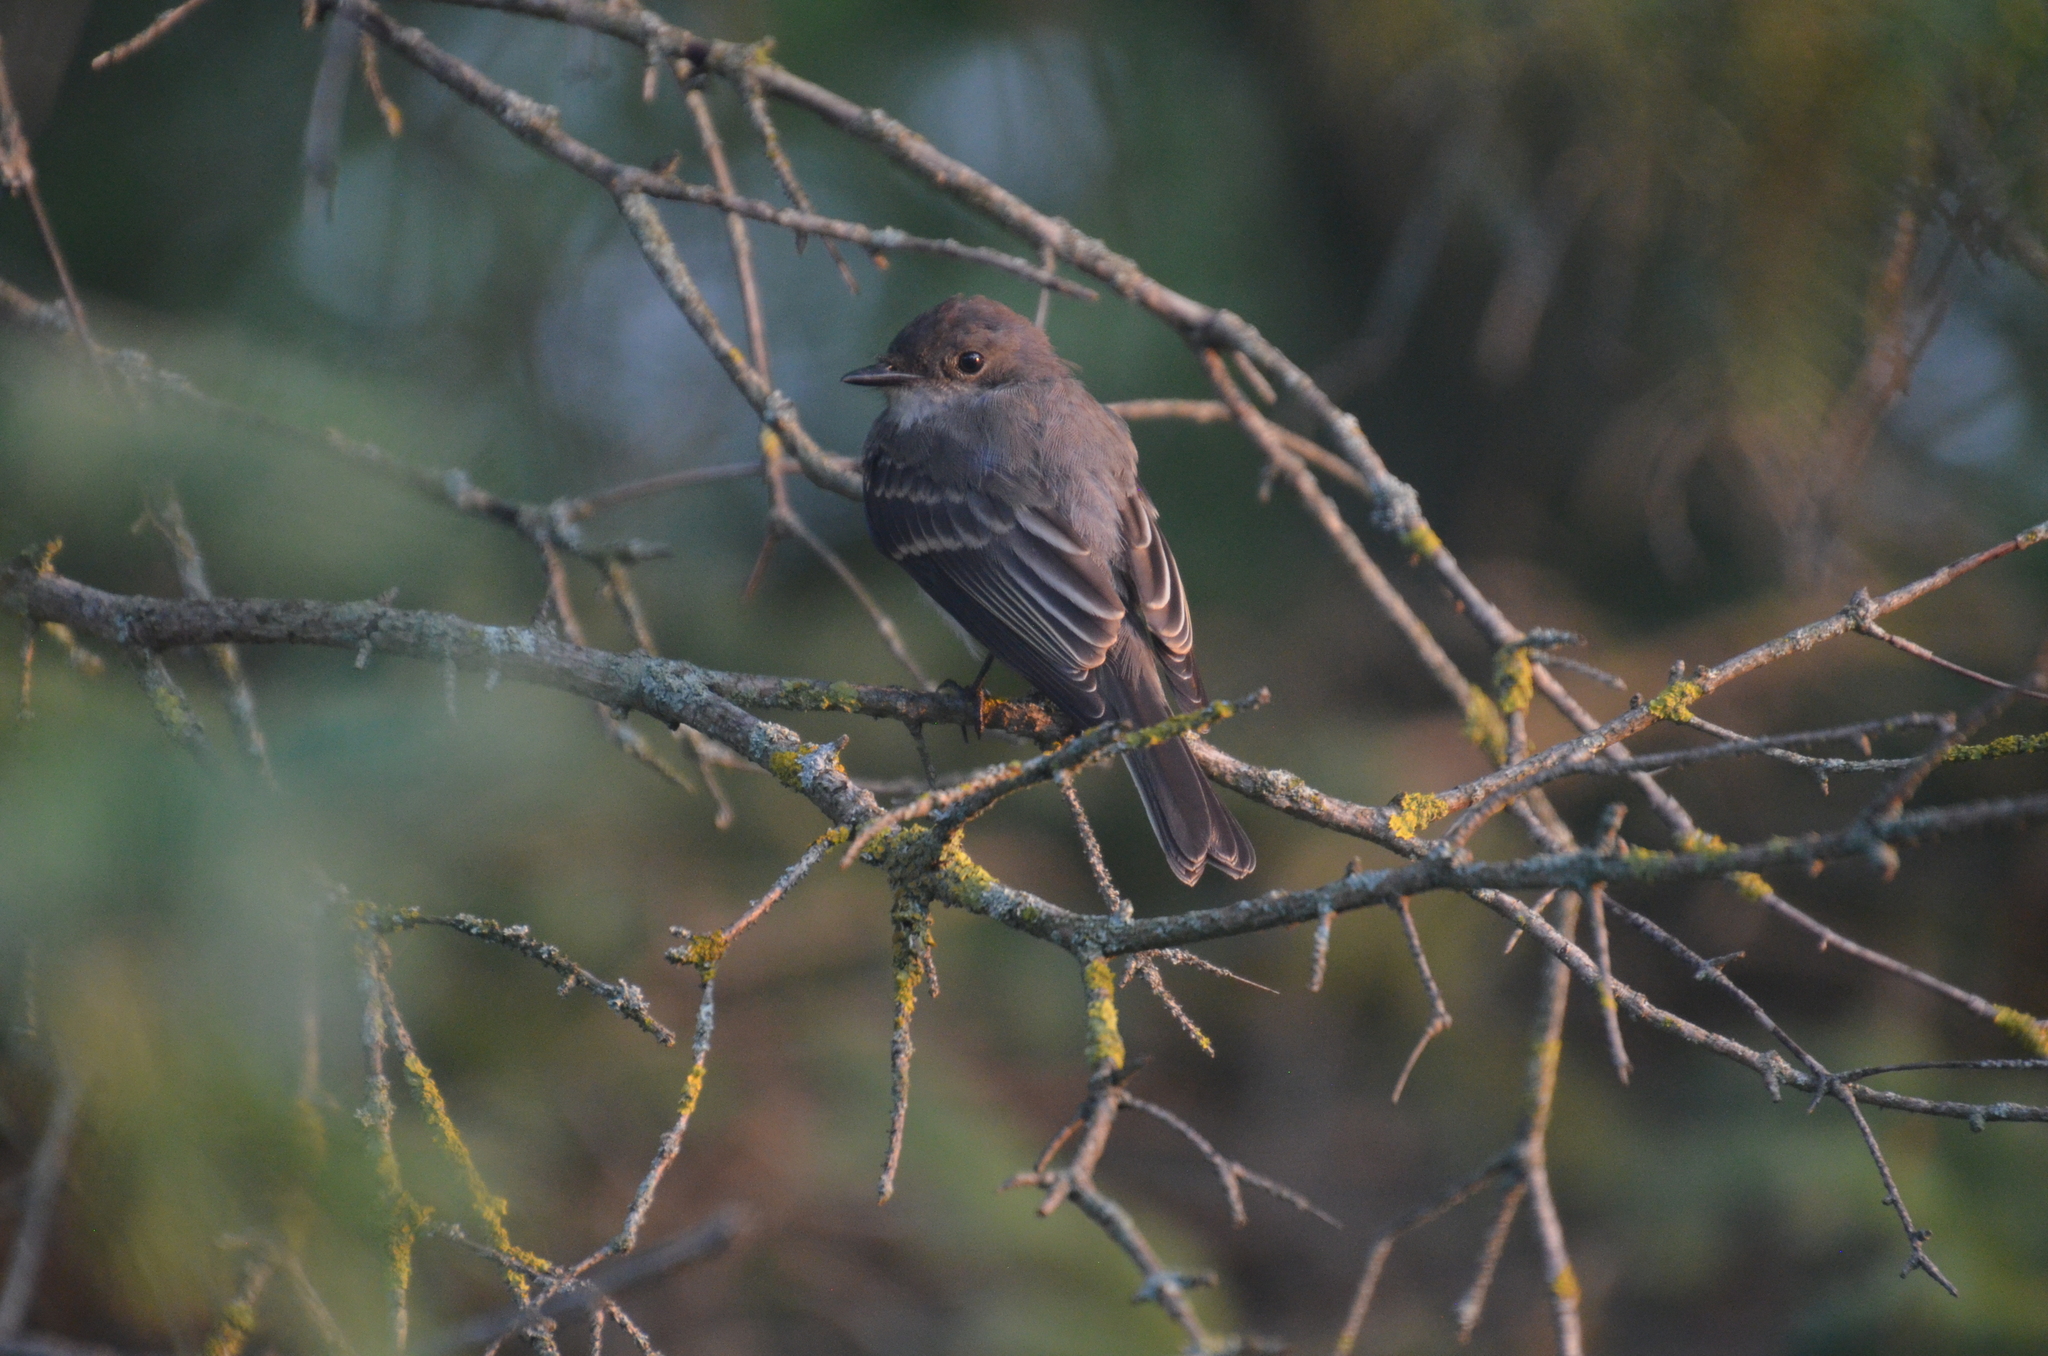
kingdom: Animalia
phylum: Chordata
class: Aves
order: Passeriformes
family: Tyrannidae
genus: Sayornis
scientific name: Sayornis phoebe
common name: Eastern phoebe
